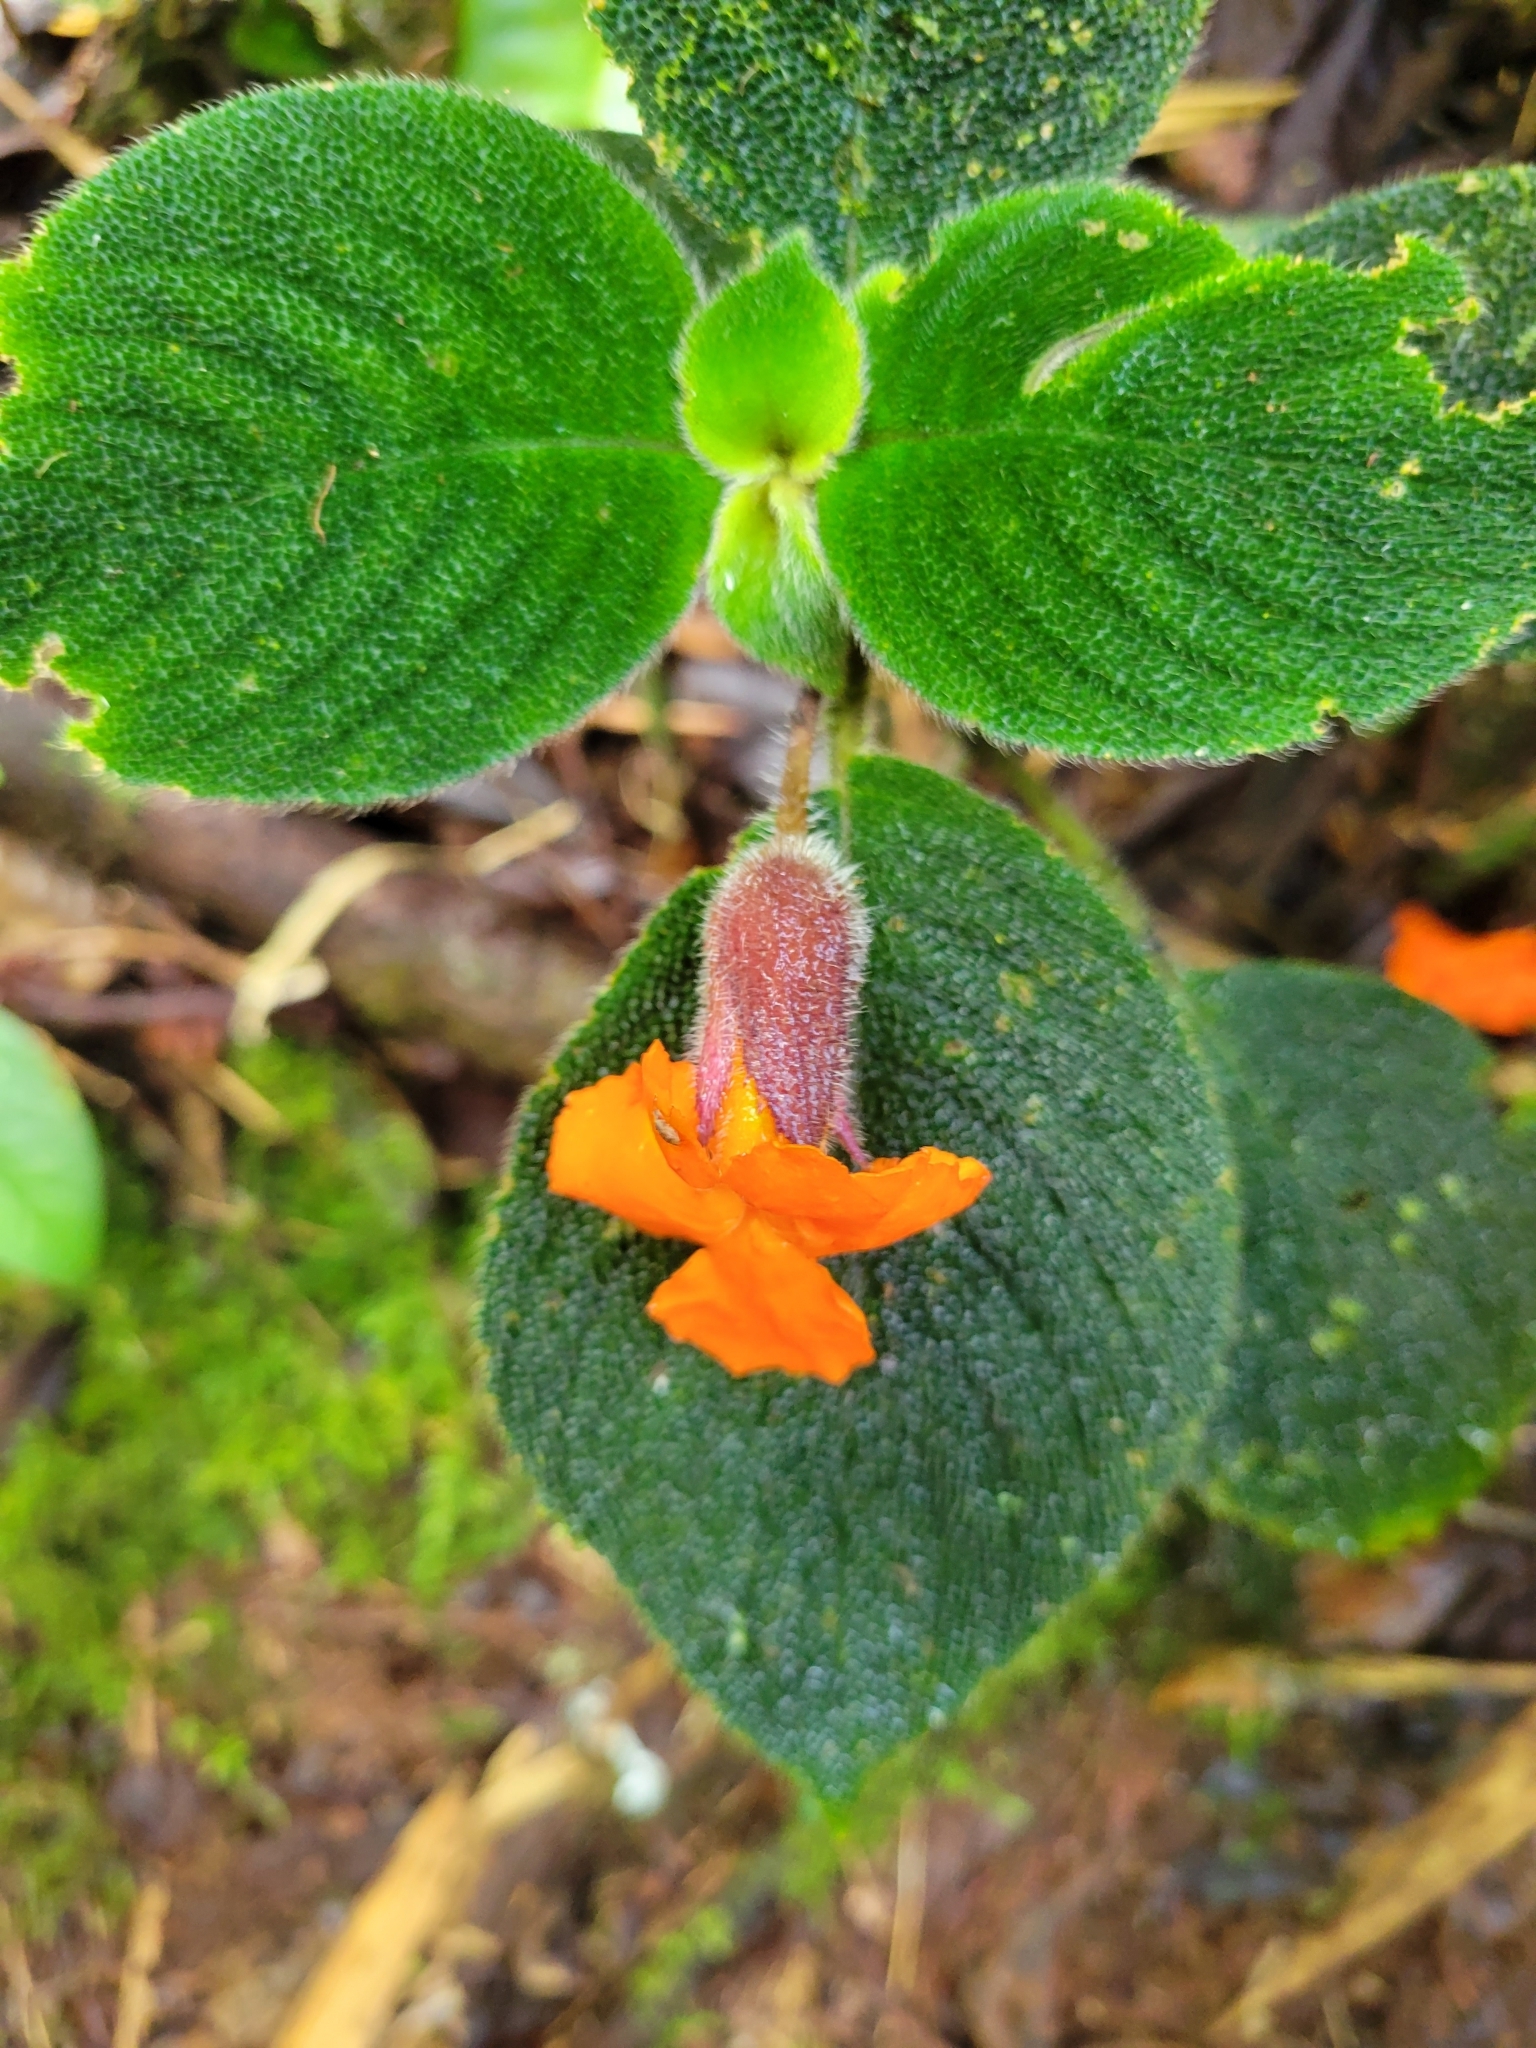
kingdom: Plantae
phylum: Tracheophyta
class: Magnoliopsida
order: Lamiales
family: Gesneriaceae
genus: Besleria
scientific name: Besleria princeps
